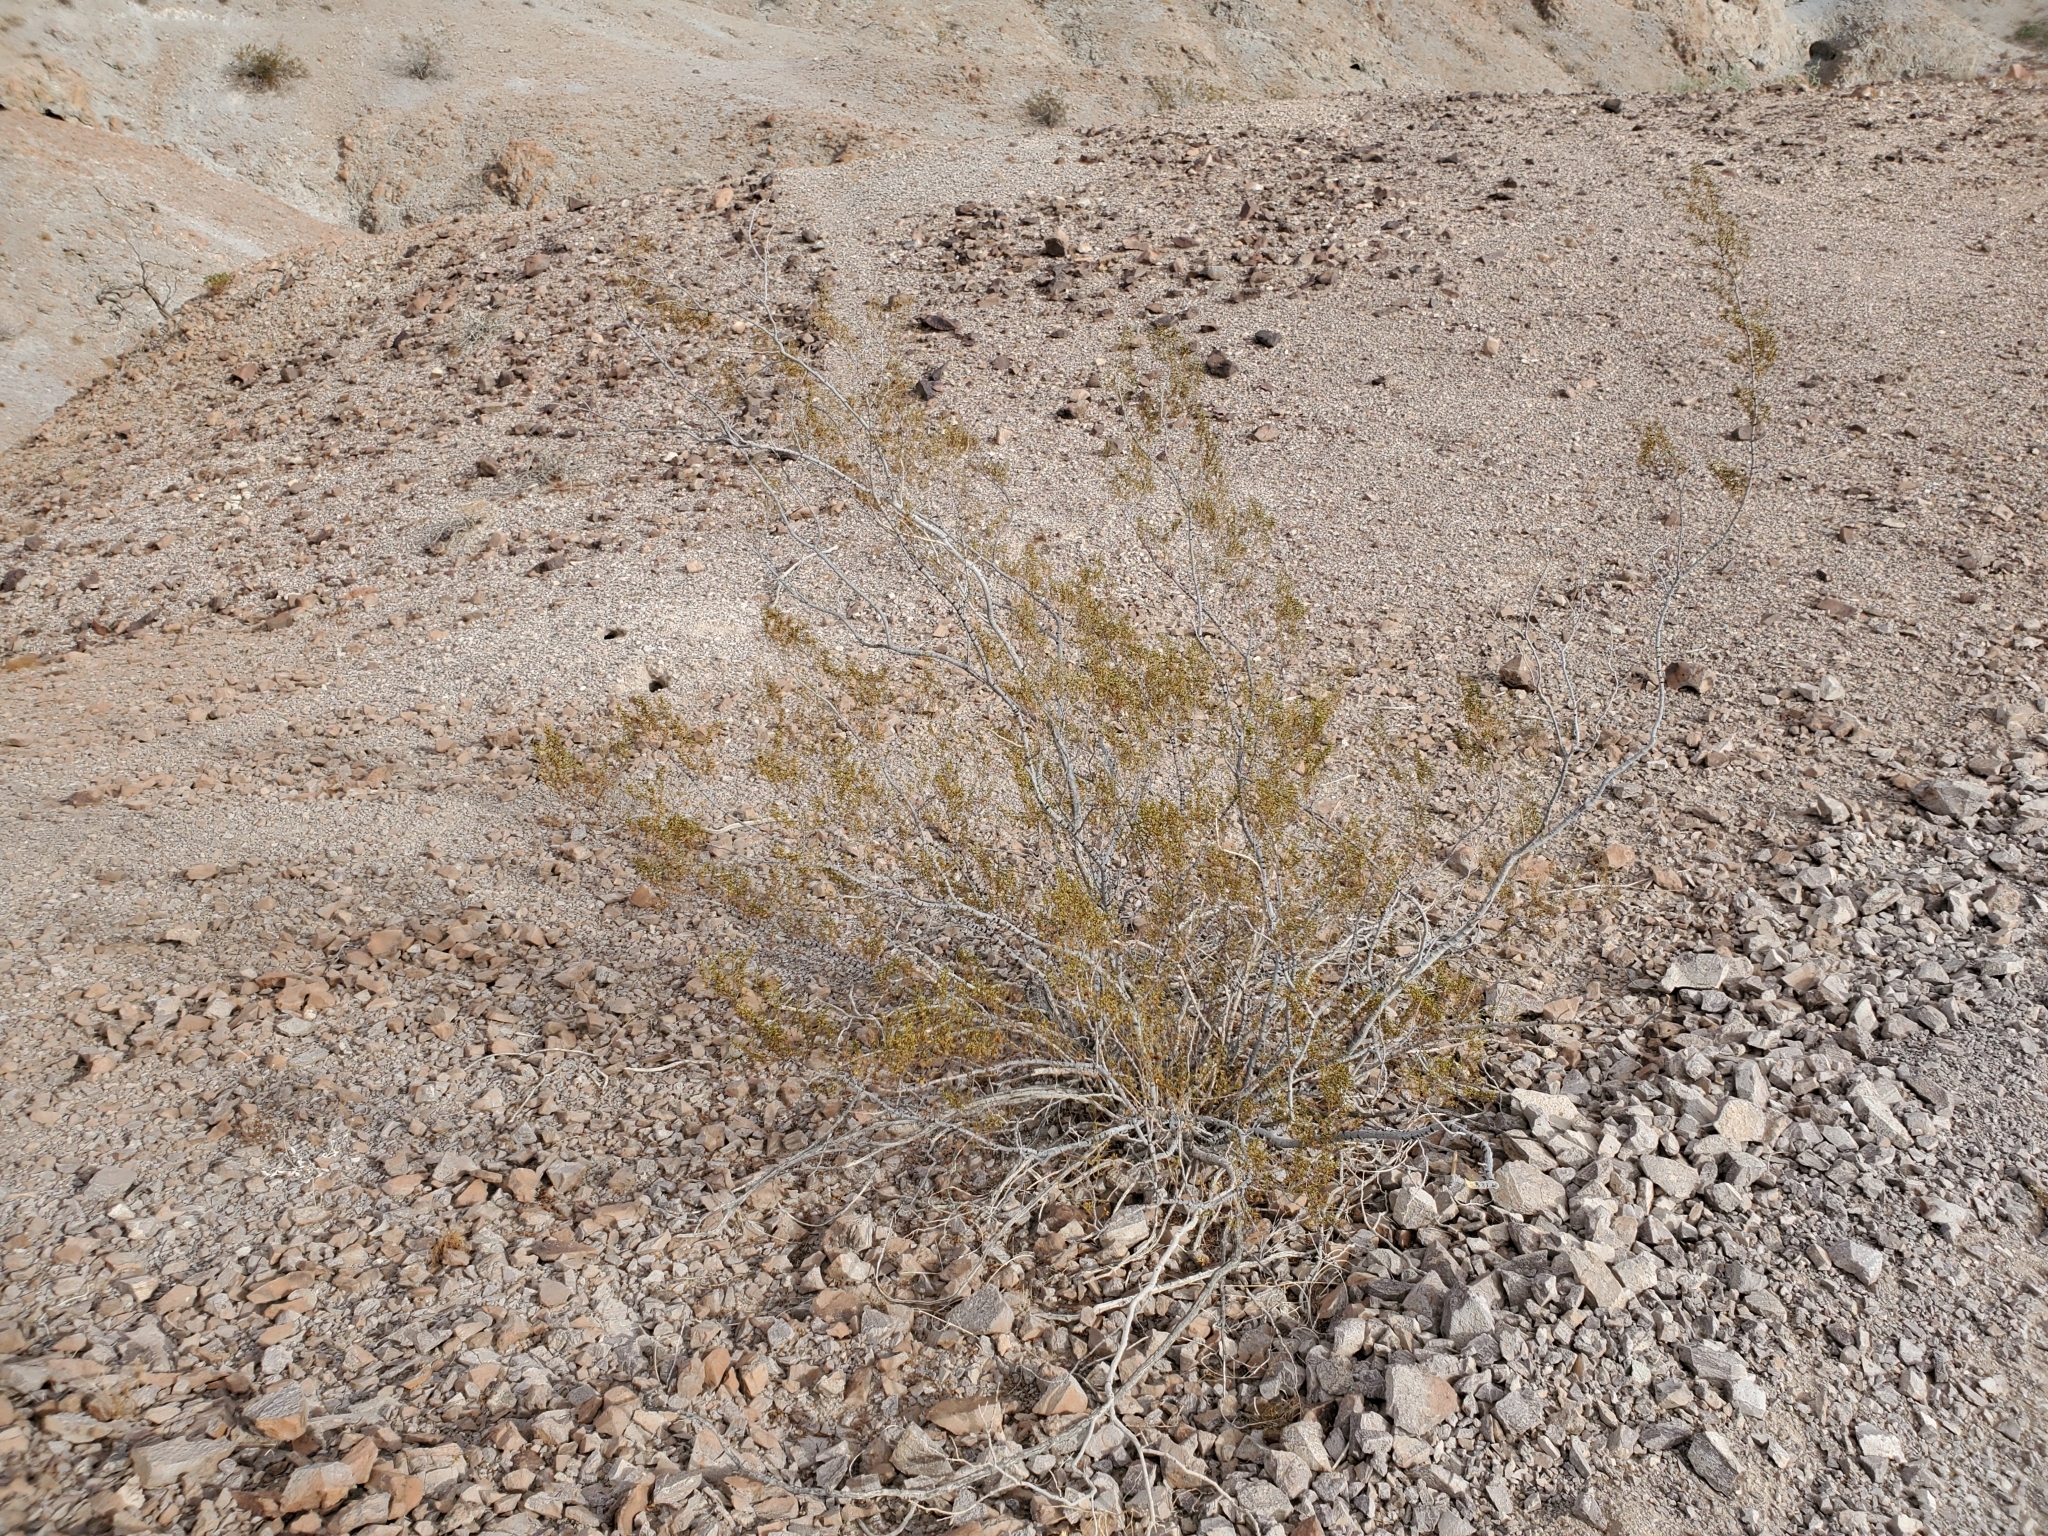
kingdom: Plantae
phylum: Tracheophyta
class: Magnoliopsida
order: Zygophyllales
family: Zygophyllaceae
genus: Larrea
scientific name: Larrea tridentata
